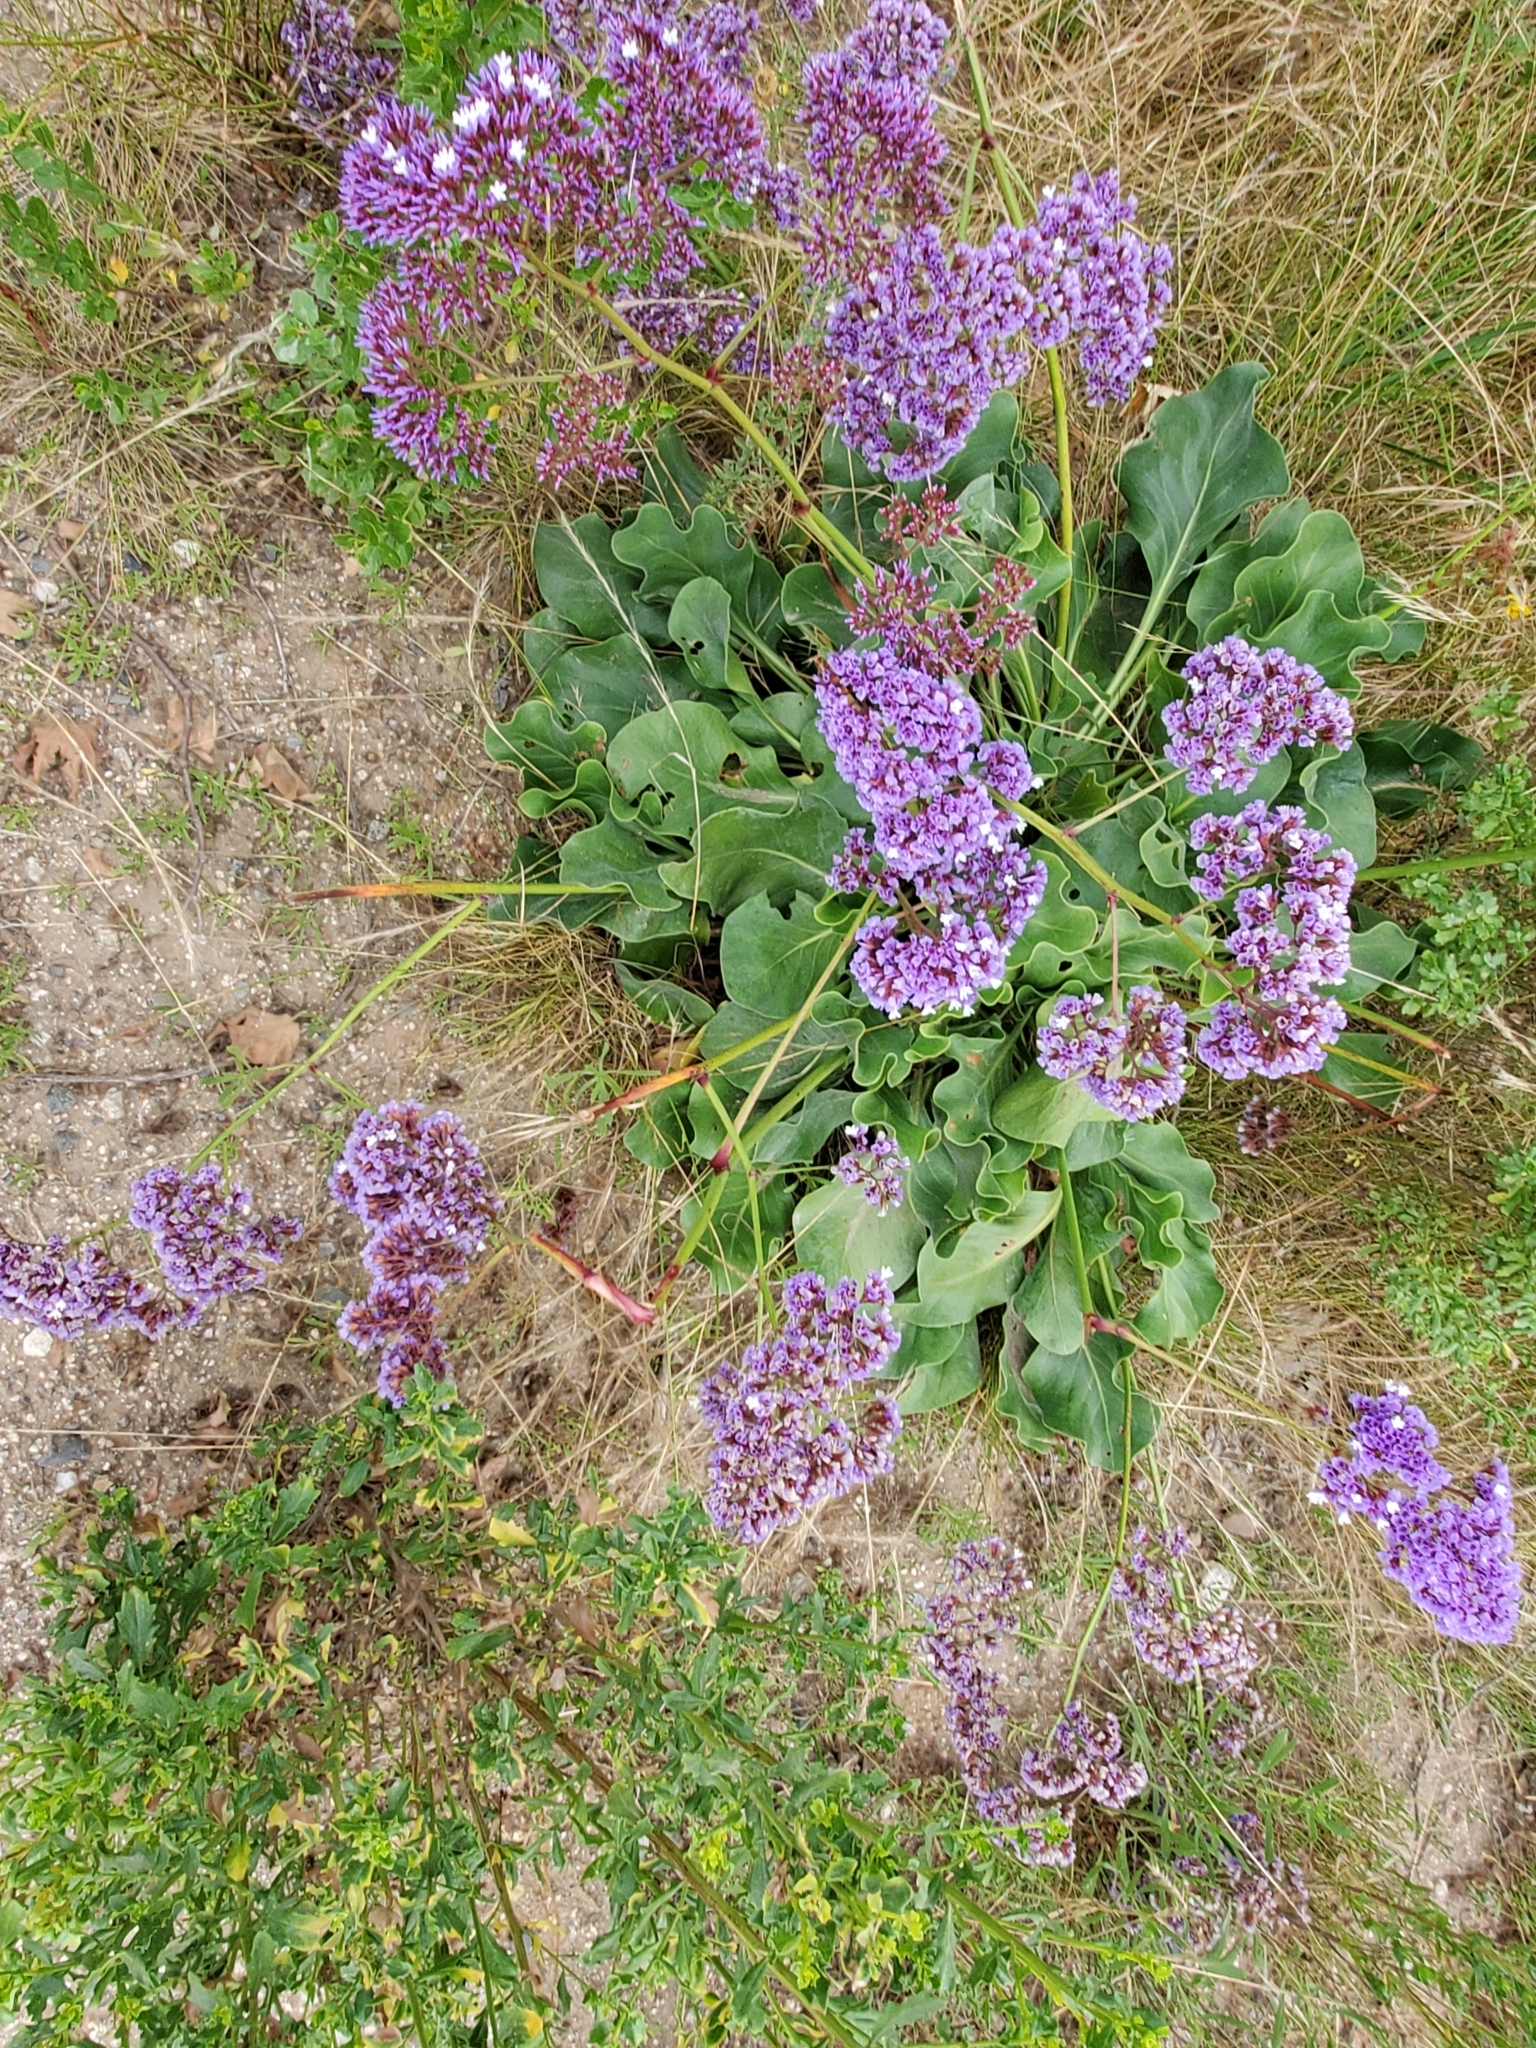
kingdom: Plantae
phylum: Tracheophyta
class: Magnoliopsida
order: Caryophyllales
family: Plumbaginaceae
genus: Limonium
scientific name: Limonium perezii
